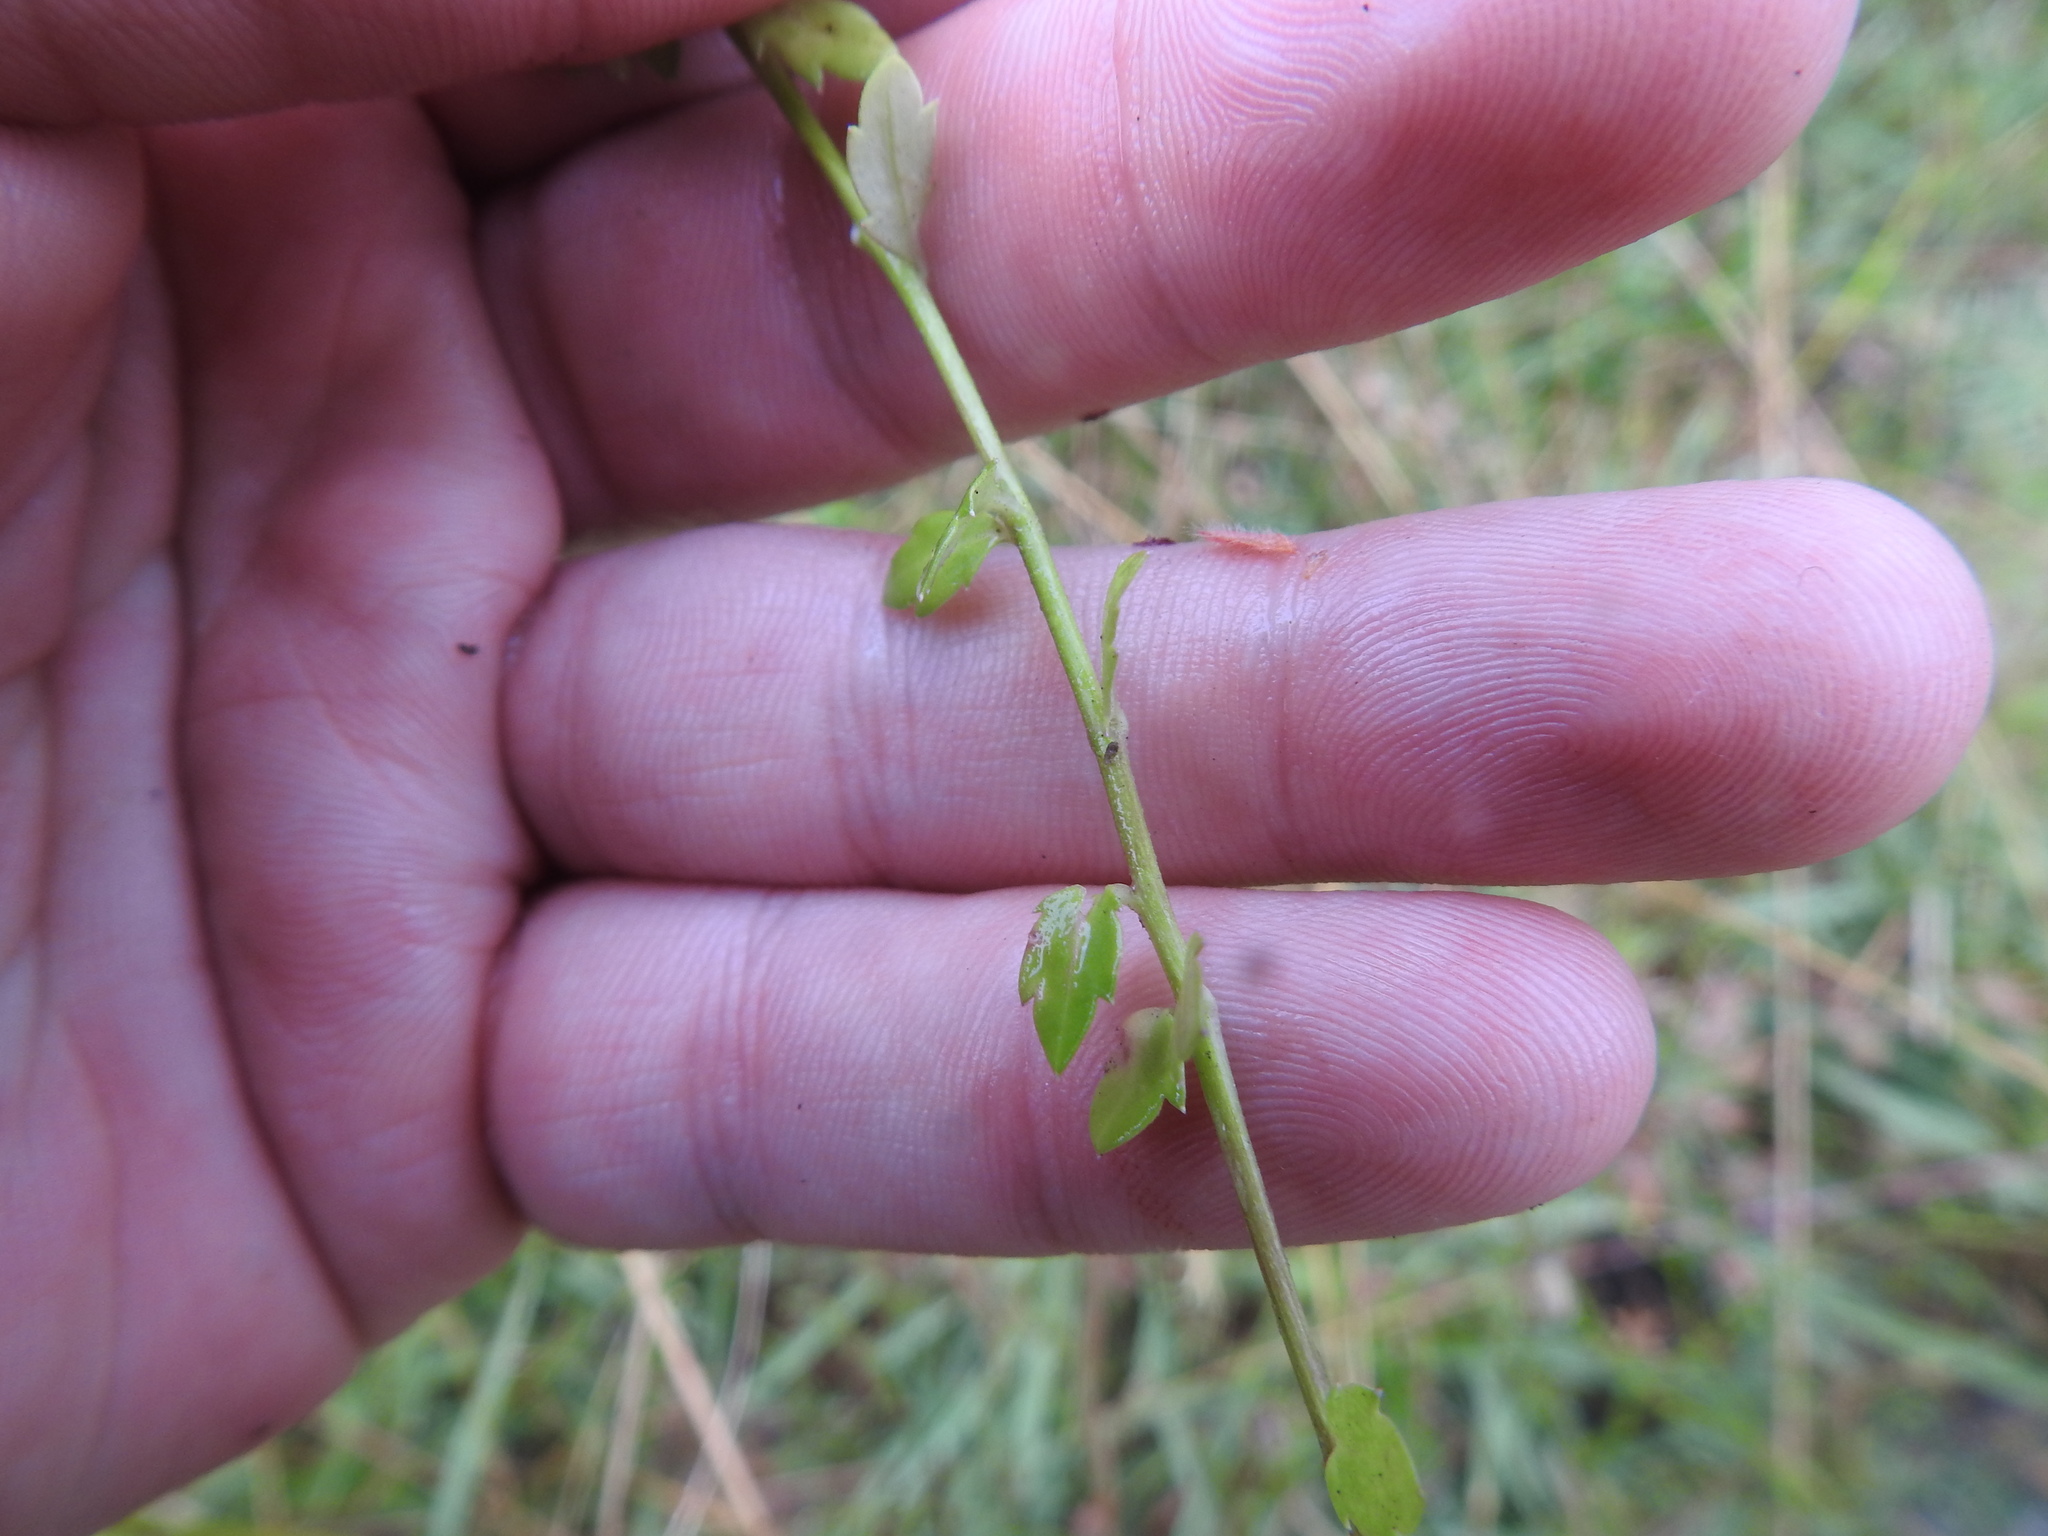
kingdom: Plantae
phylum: Tracheophyta
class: Magnoliopsida
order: Asterales
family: Campanulaceae
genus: Monopsis
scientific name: Monopsis simplex
